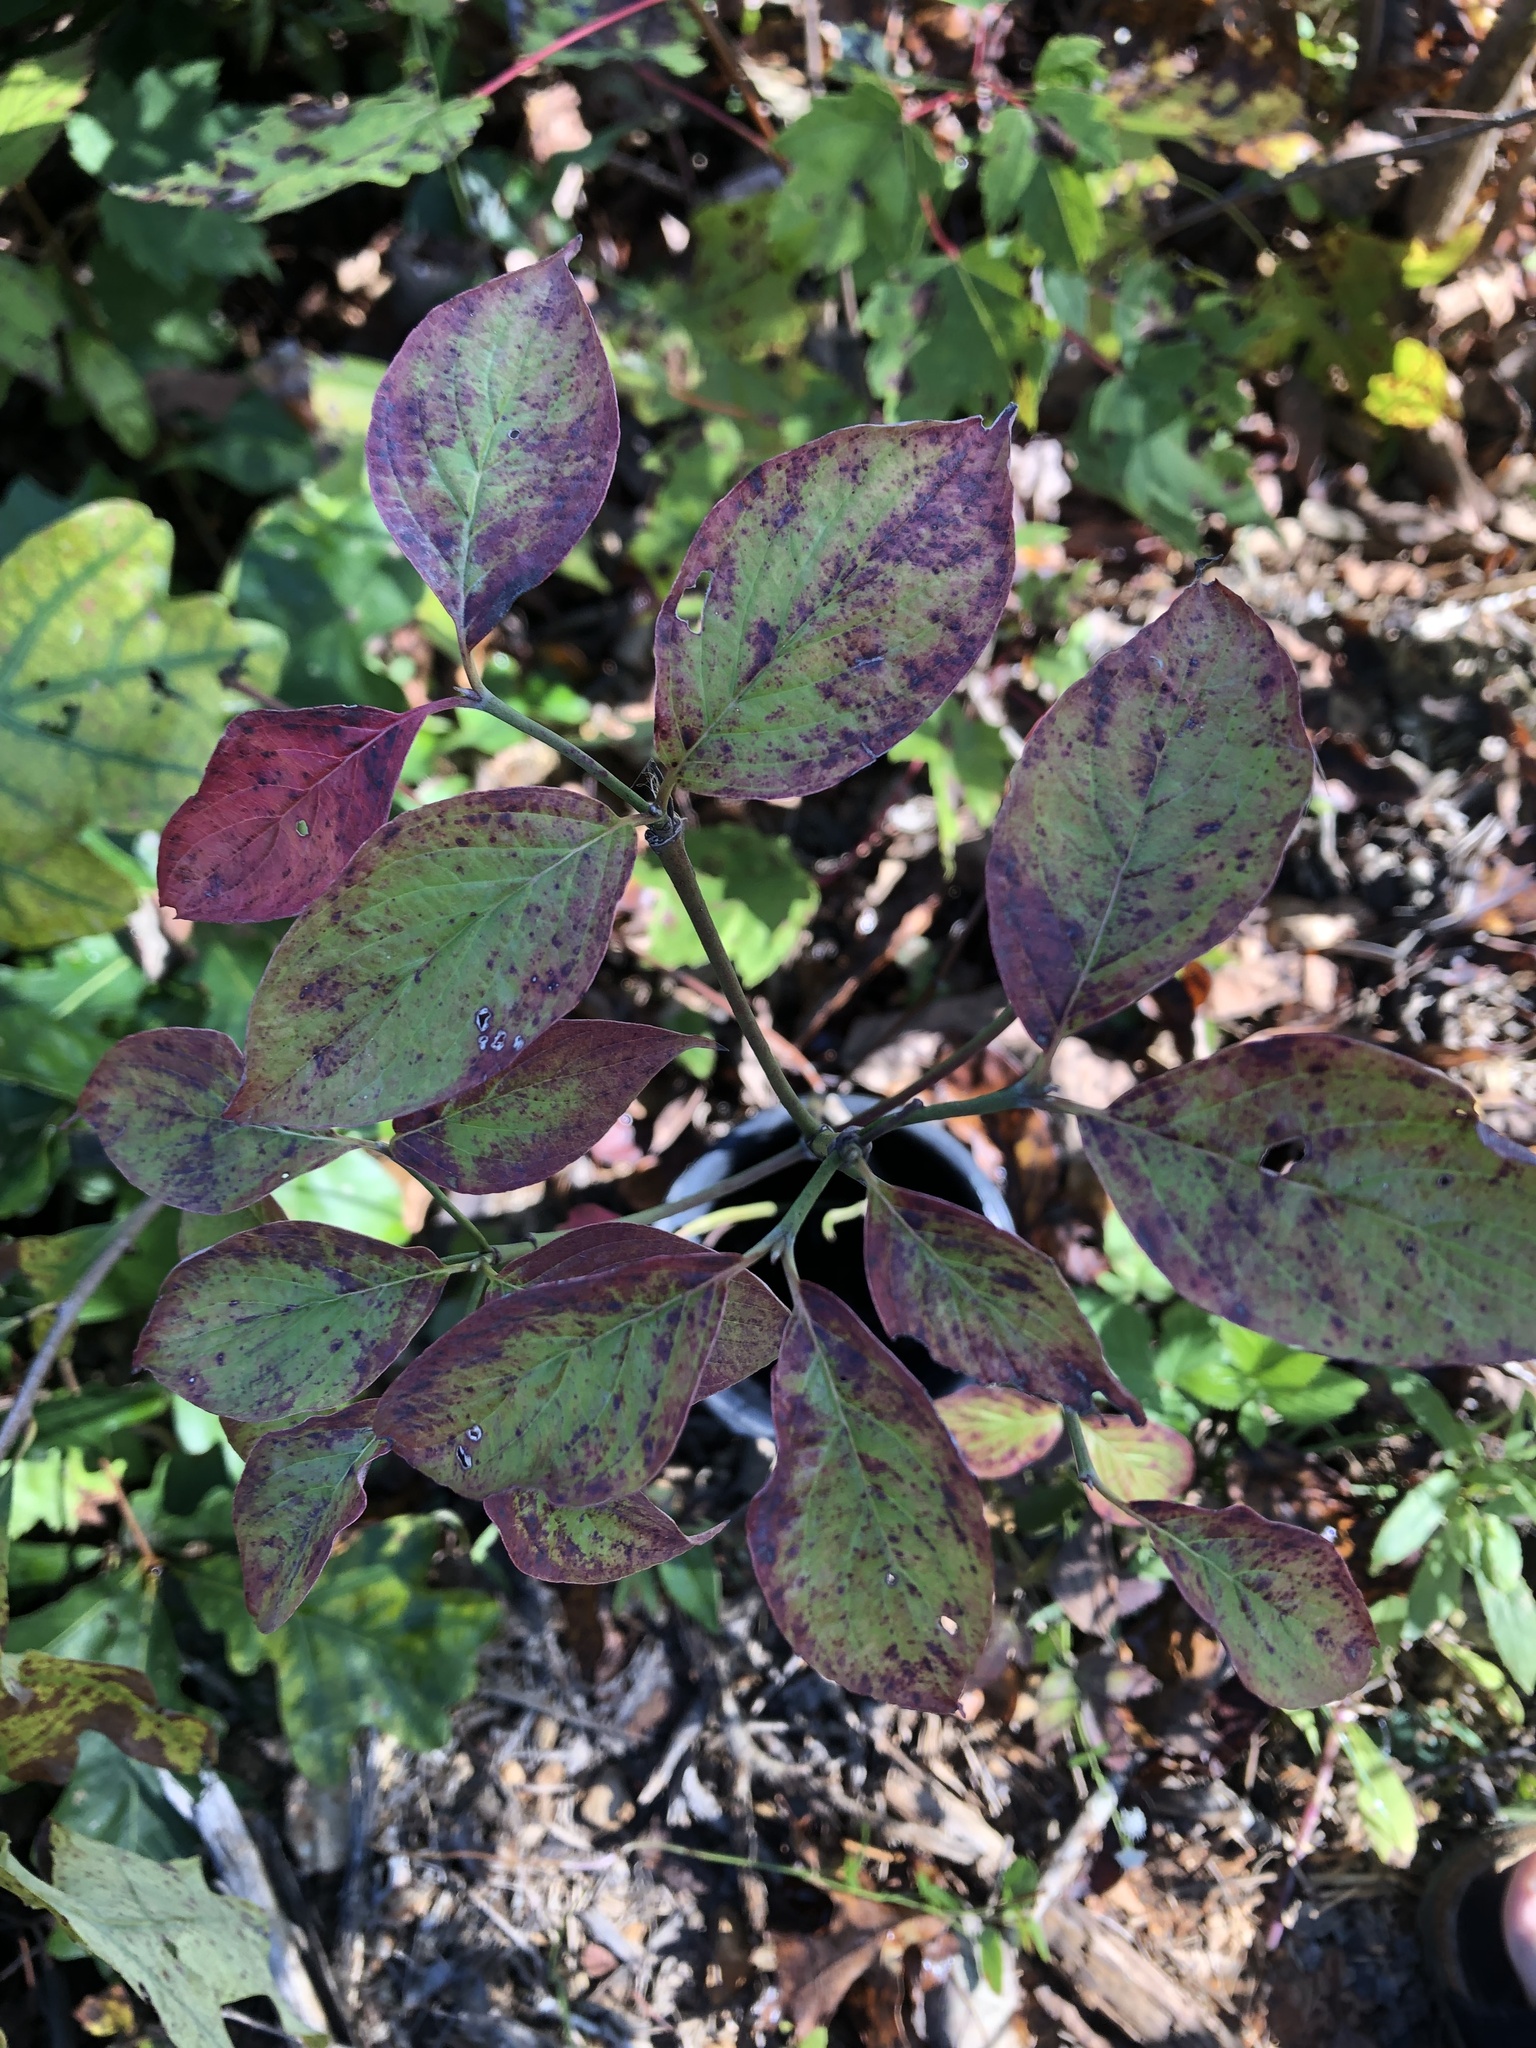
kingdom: Plantae
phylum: Tracheophyta
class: Magnoliopsida
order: Cornales
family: Cornaceae
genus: Cornus
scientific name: Cornus florida
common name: Flowering dogwood
